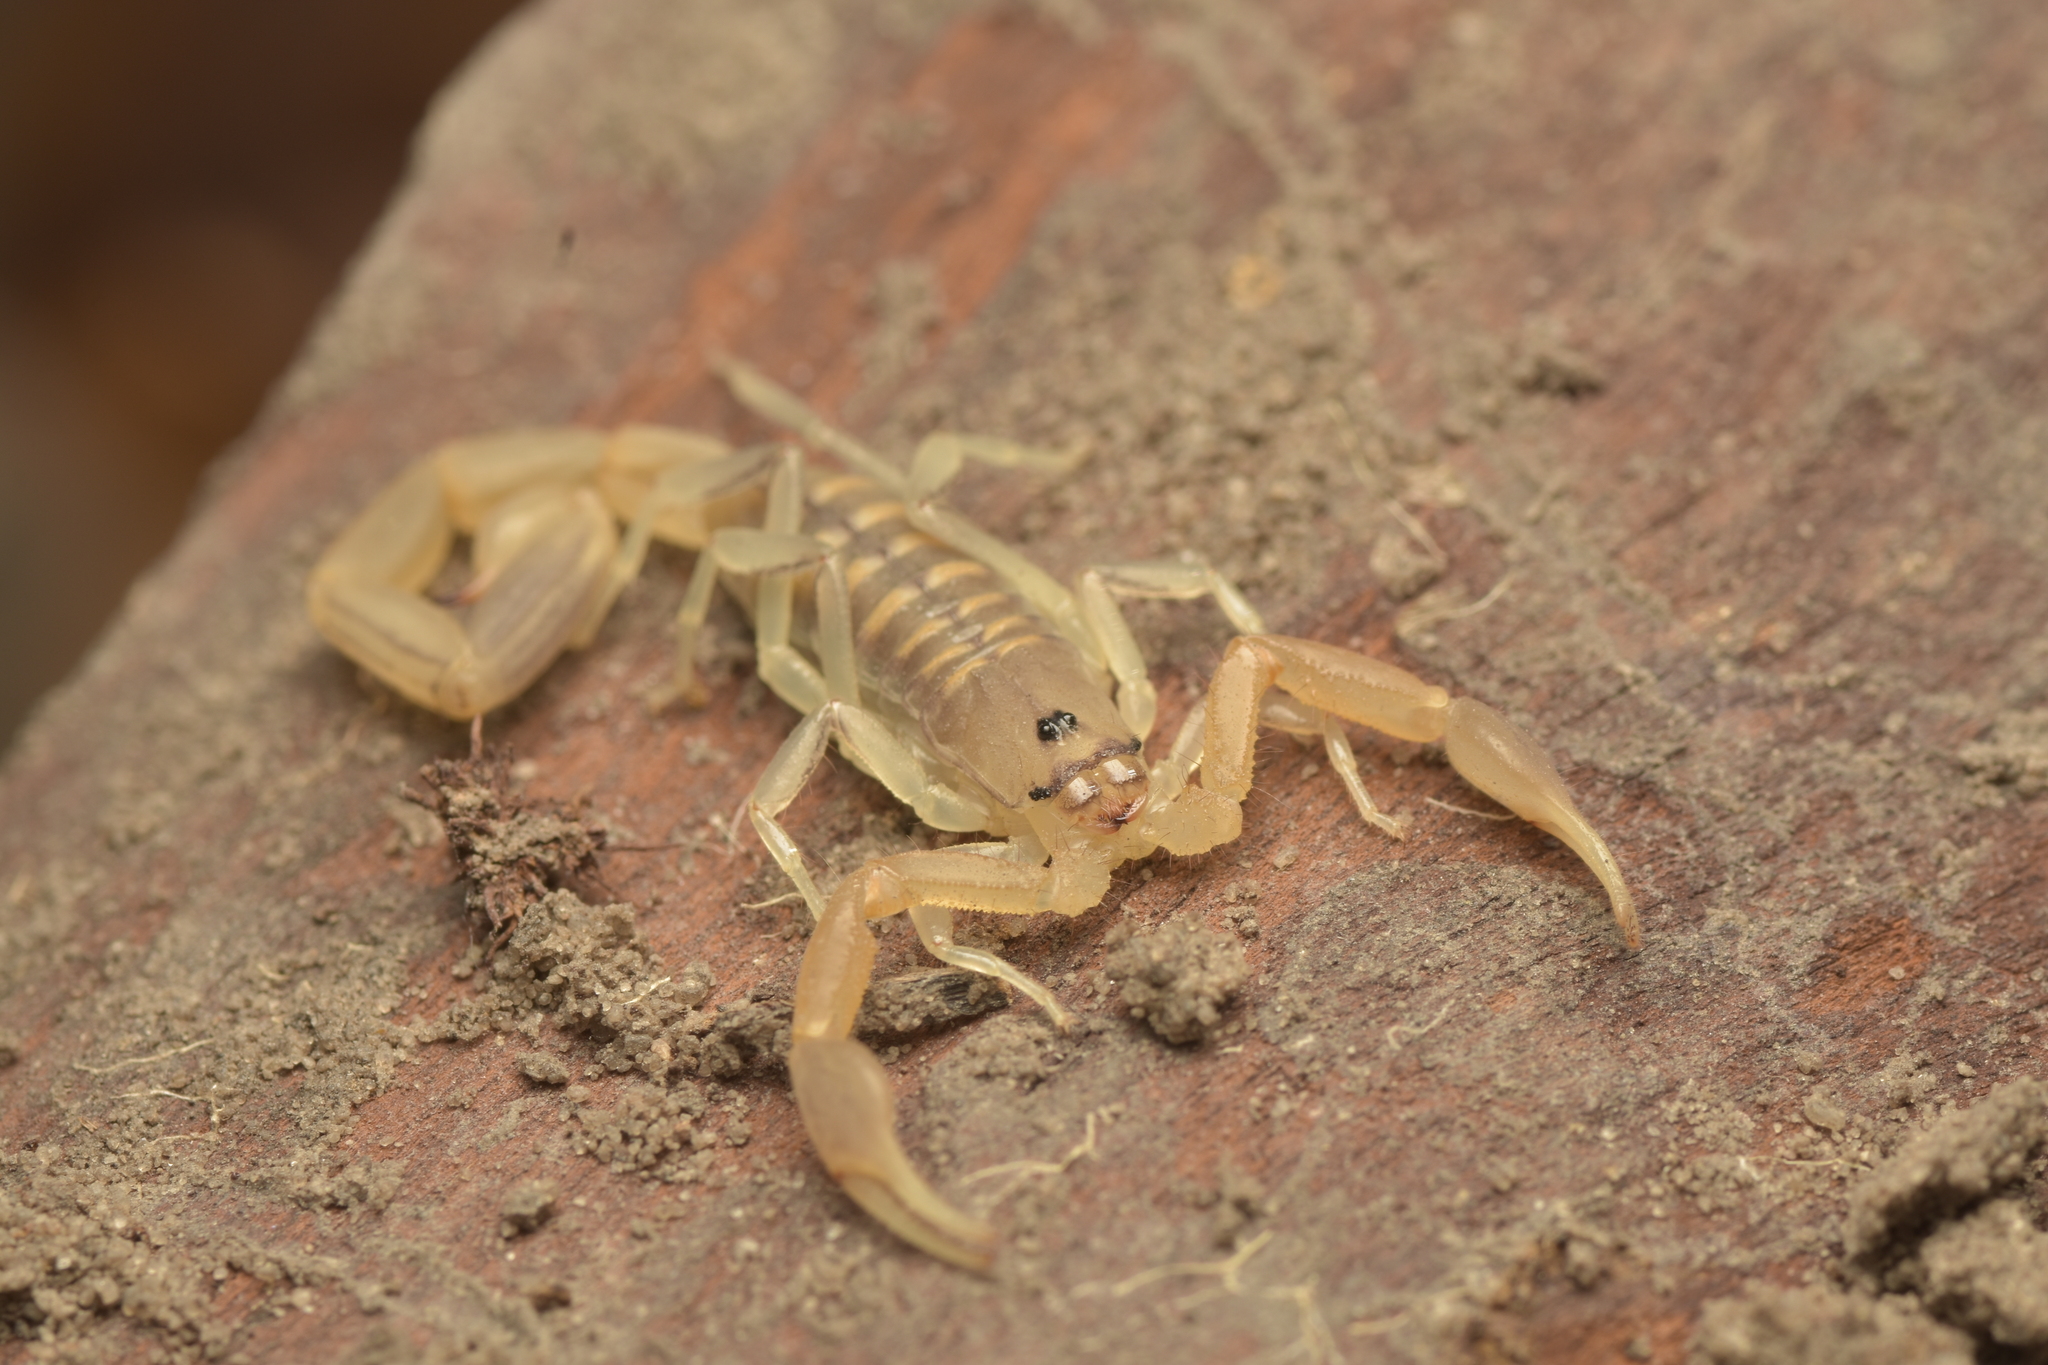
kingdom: Animalia
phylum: Arthropoda
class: Arachnida
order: Scorpiones
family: Buthidae
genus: Uroplectes
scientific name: Uroplectes planimanus
